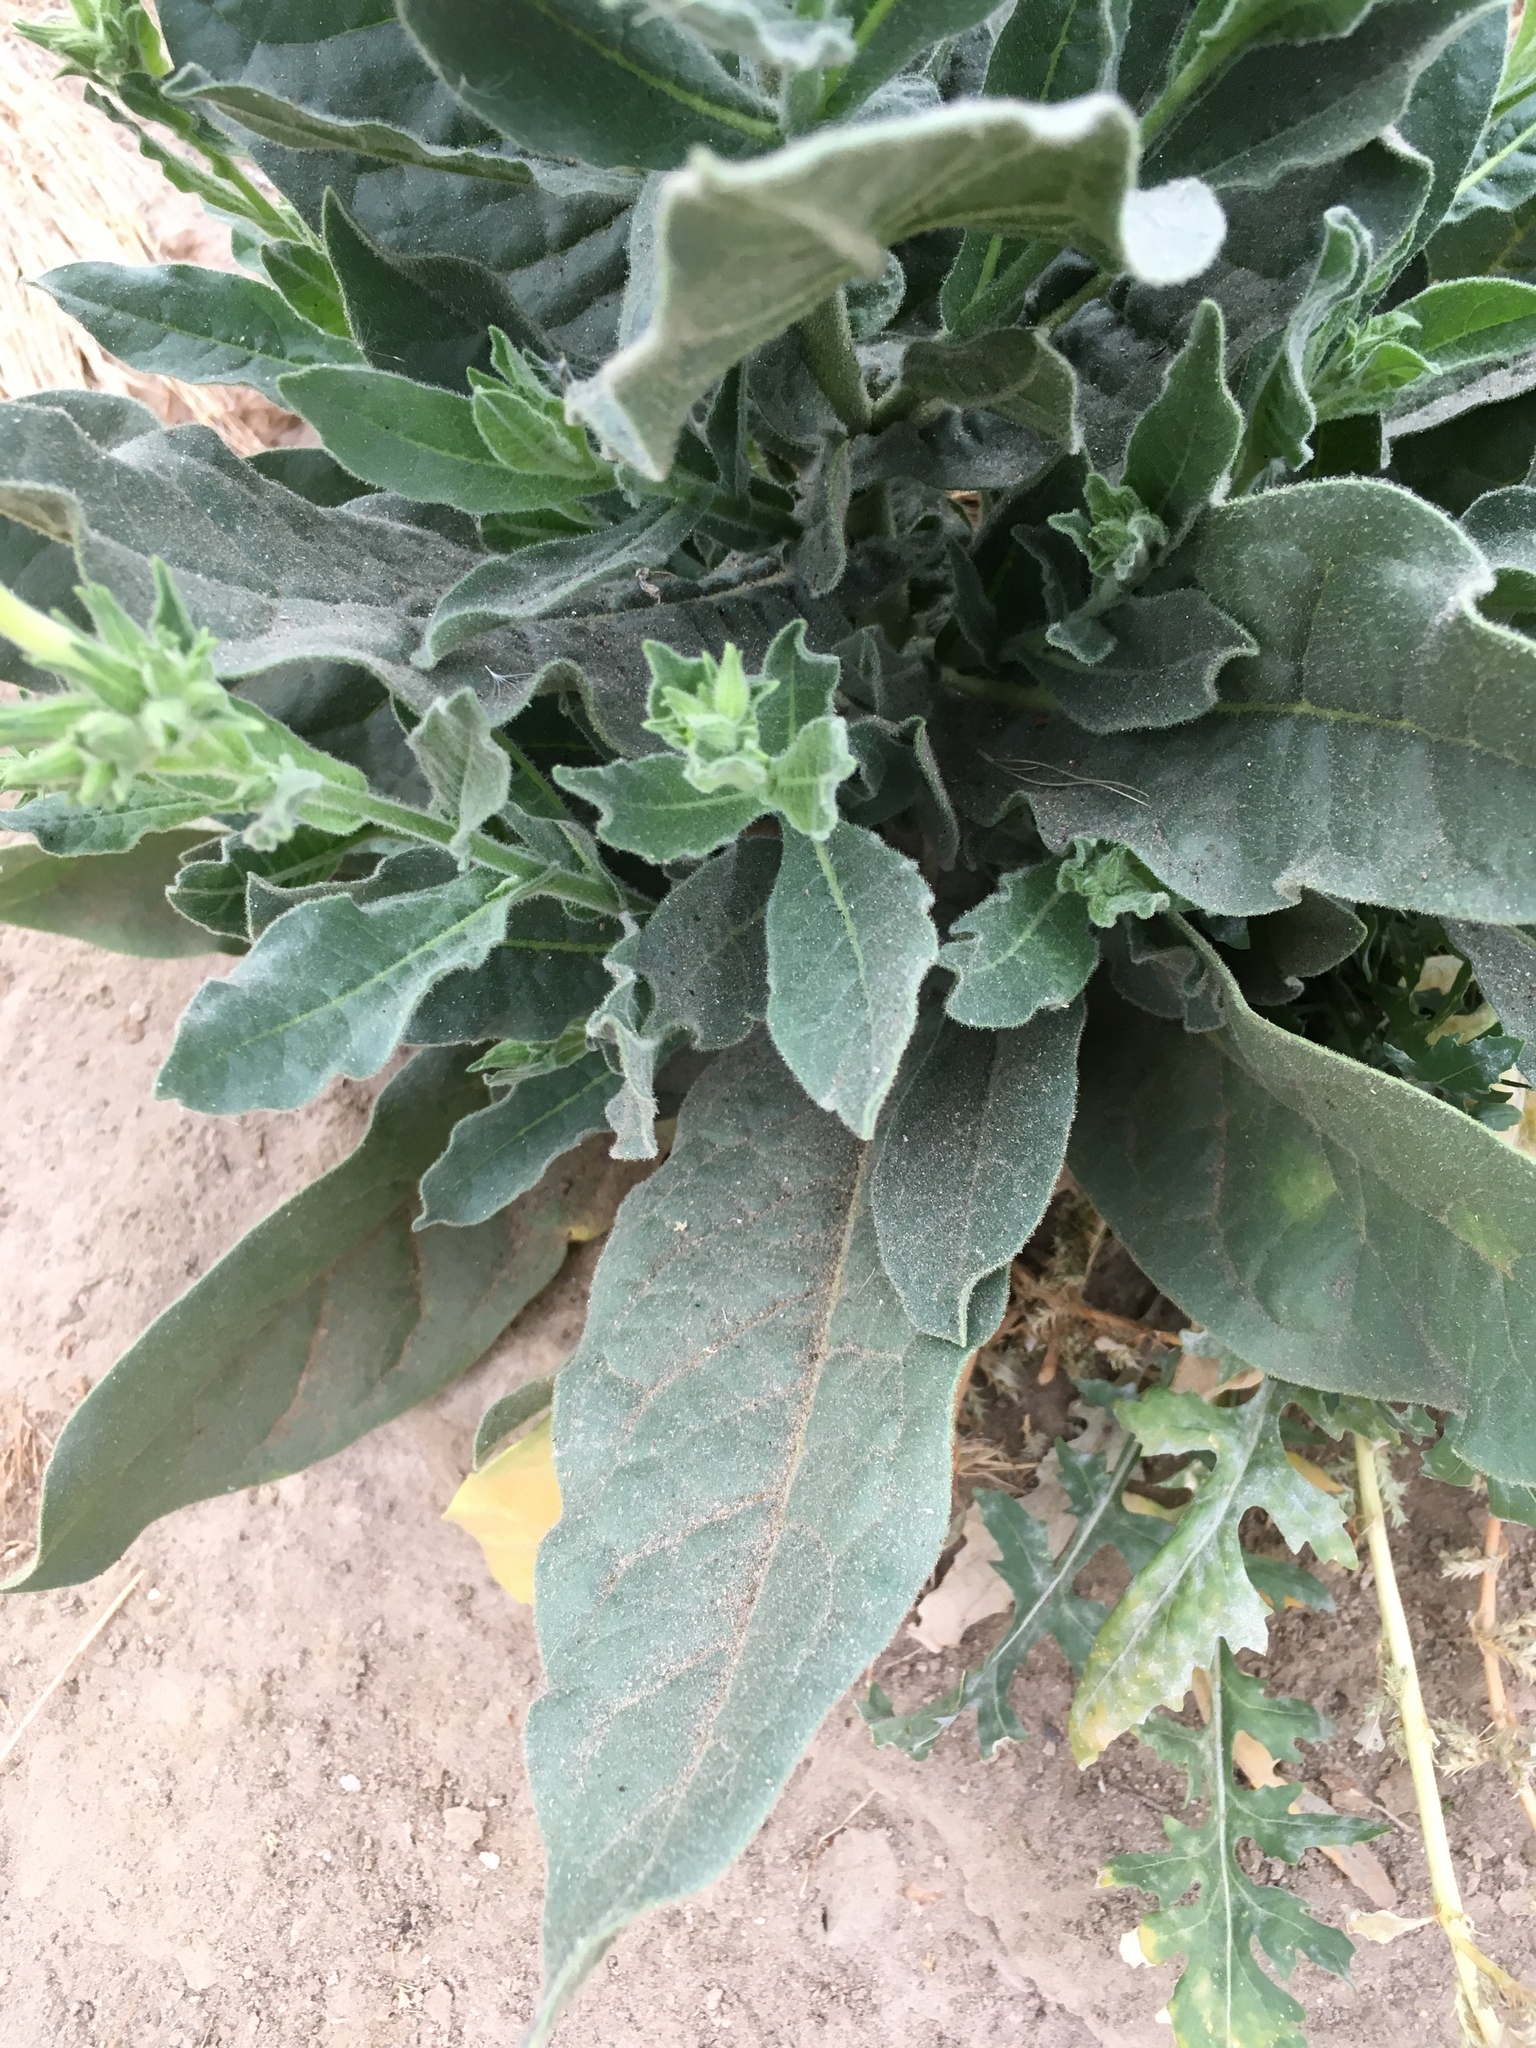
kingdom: Plantae
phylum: Tracheophyta
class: Magnoliopsida
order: Solanales
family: Solanaceae
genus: Nicotiana
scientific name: Nicotiana obtusifolia
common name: Desert tobacco
